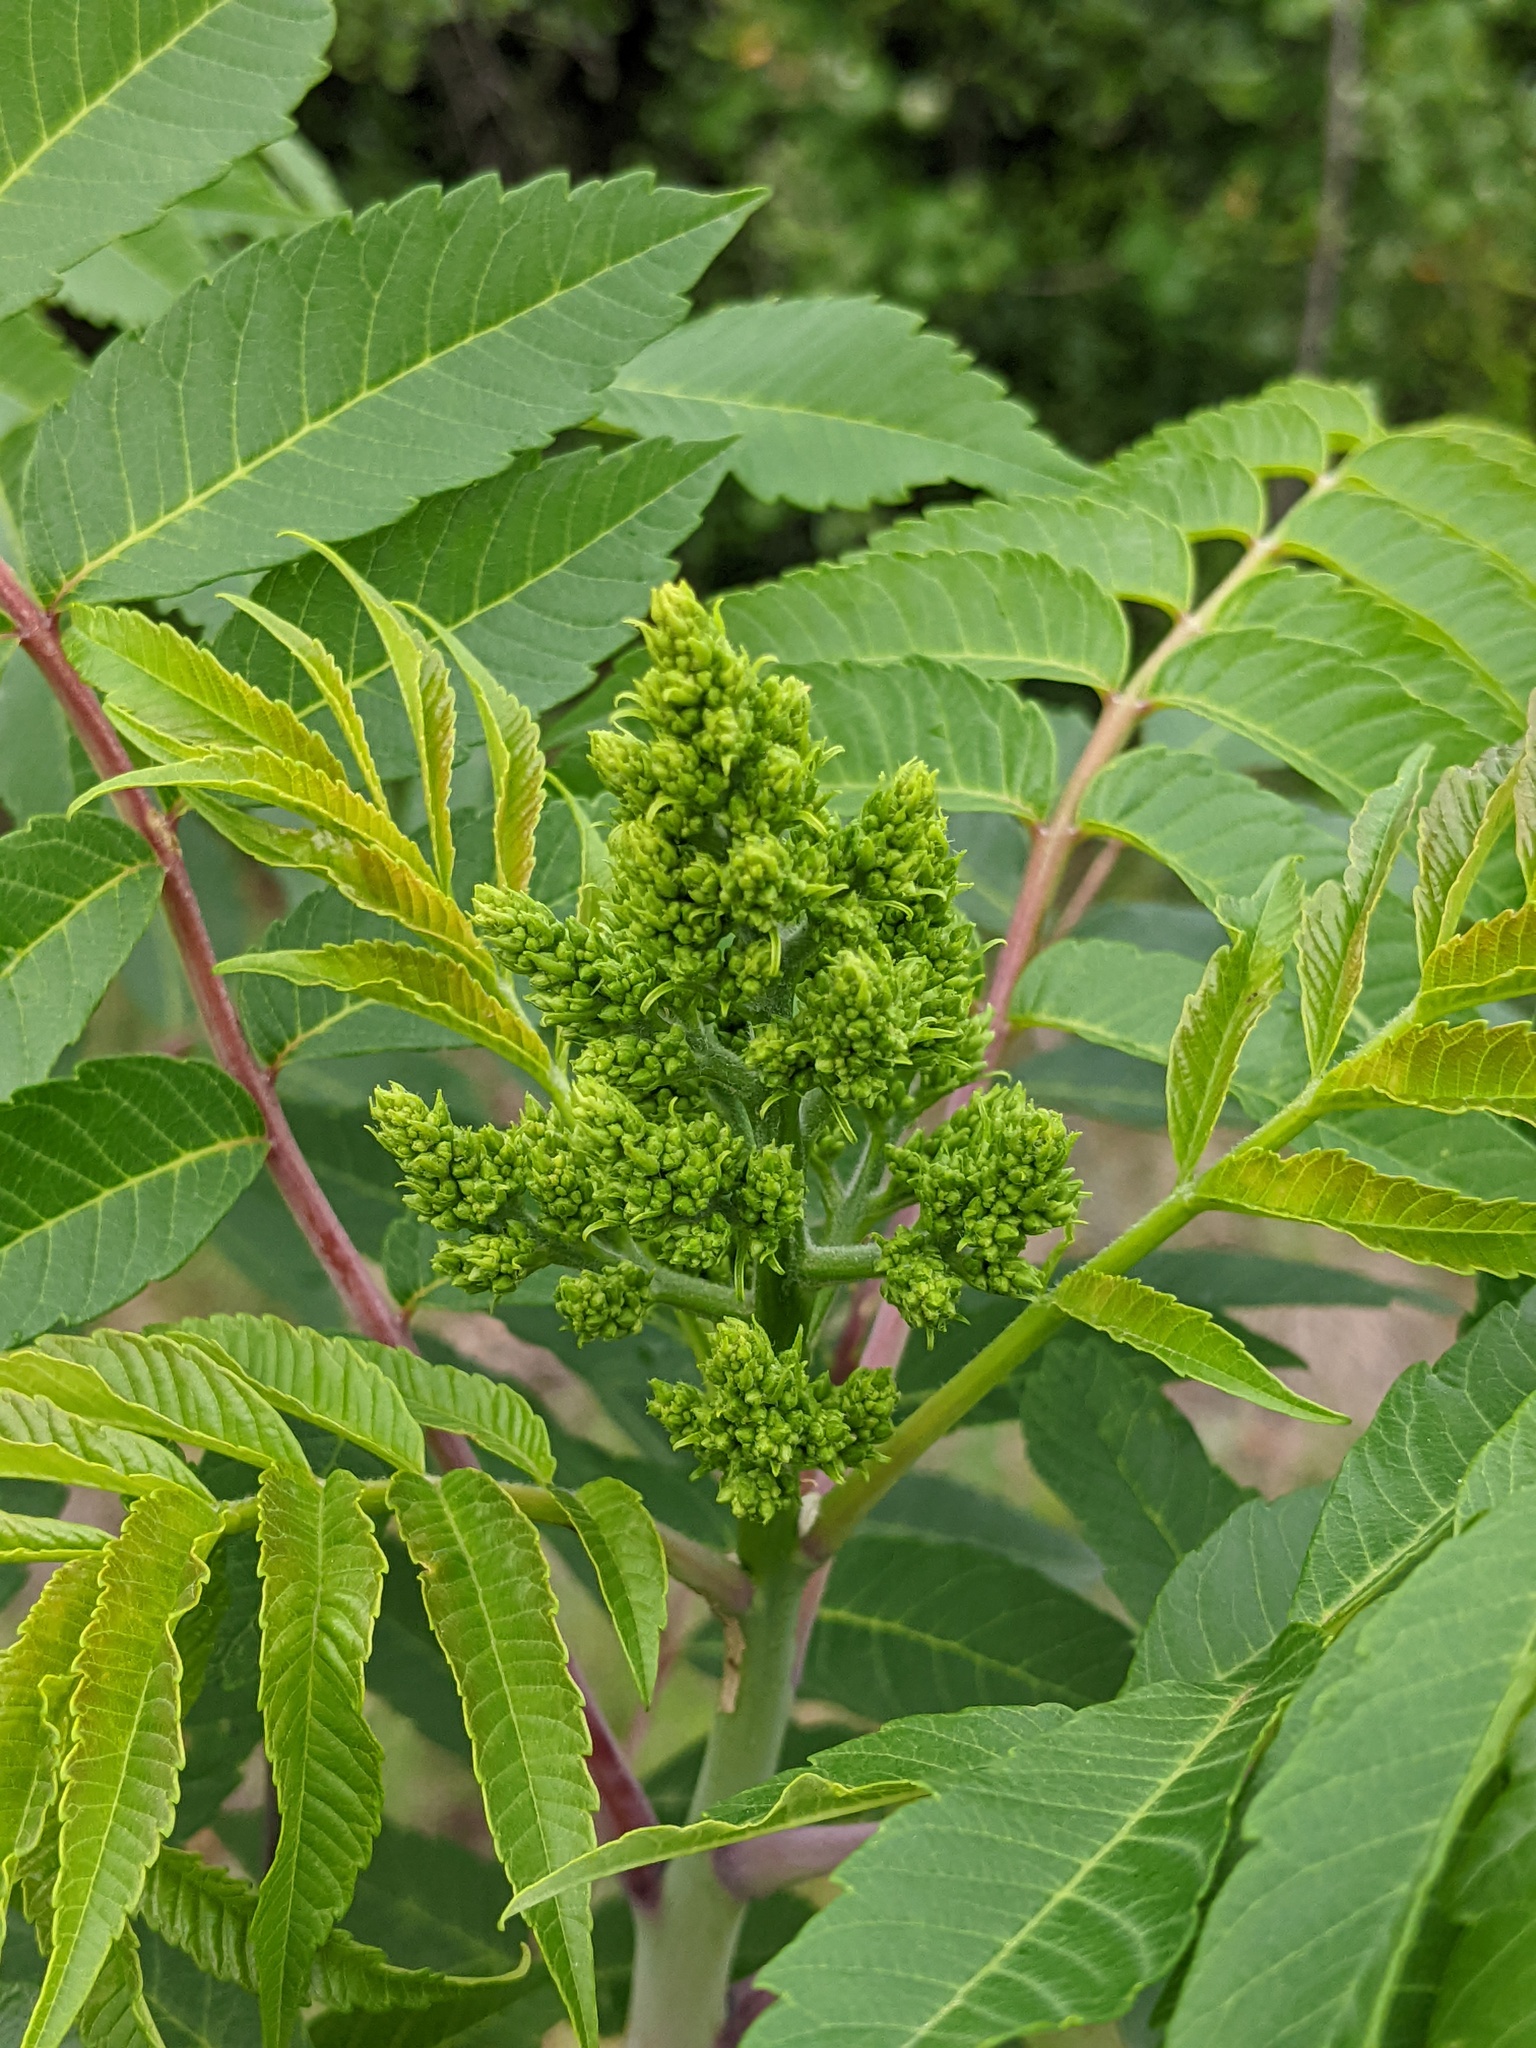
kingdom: Plantae
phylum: Tracheophyta
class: Magnoliopsida
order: Sapindales
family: Anacardiaceae
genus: Rhus
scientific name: Rhus glabra
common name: Scarlet sumac
